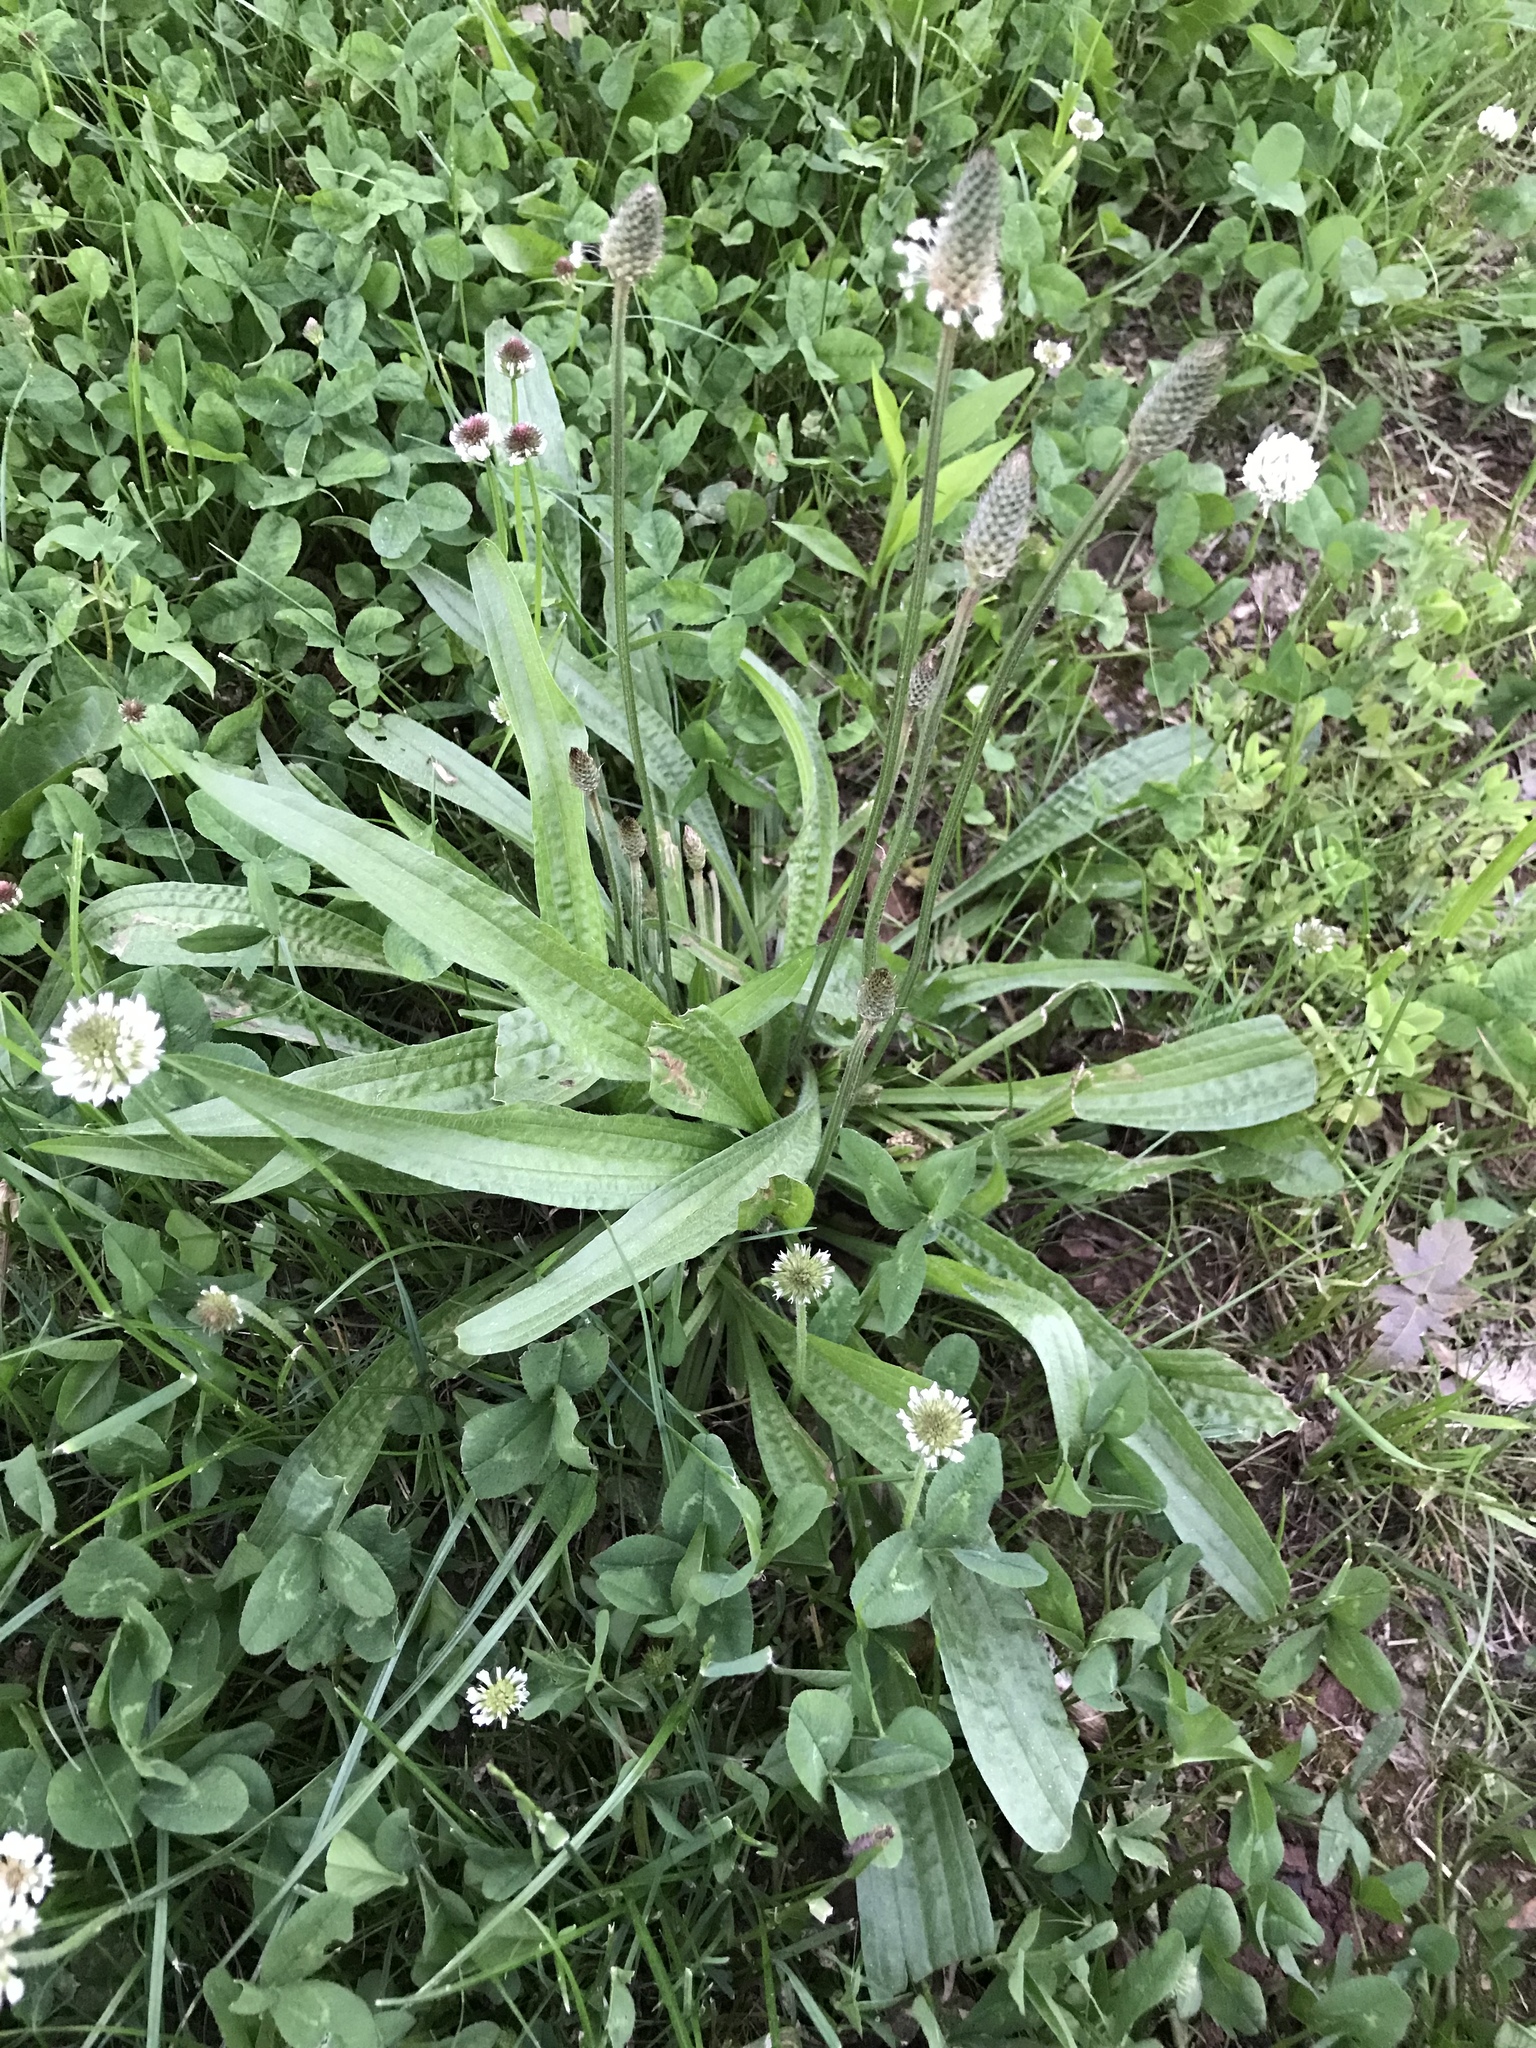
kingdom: Plantae
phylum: Tracheophyta
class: Magnoliopsida
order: Lamiales
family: Plantaginaceae
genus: Plantago
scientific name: Plantago lanceolata
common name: Ribwort plantain
